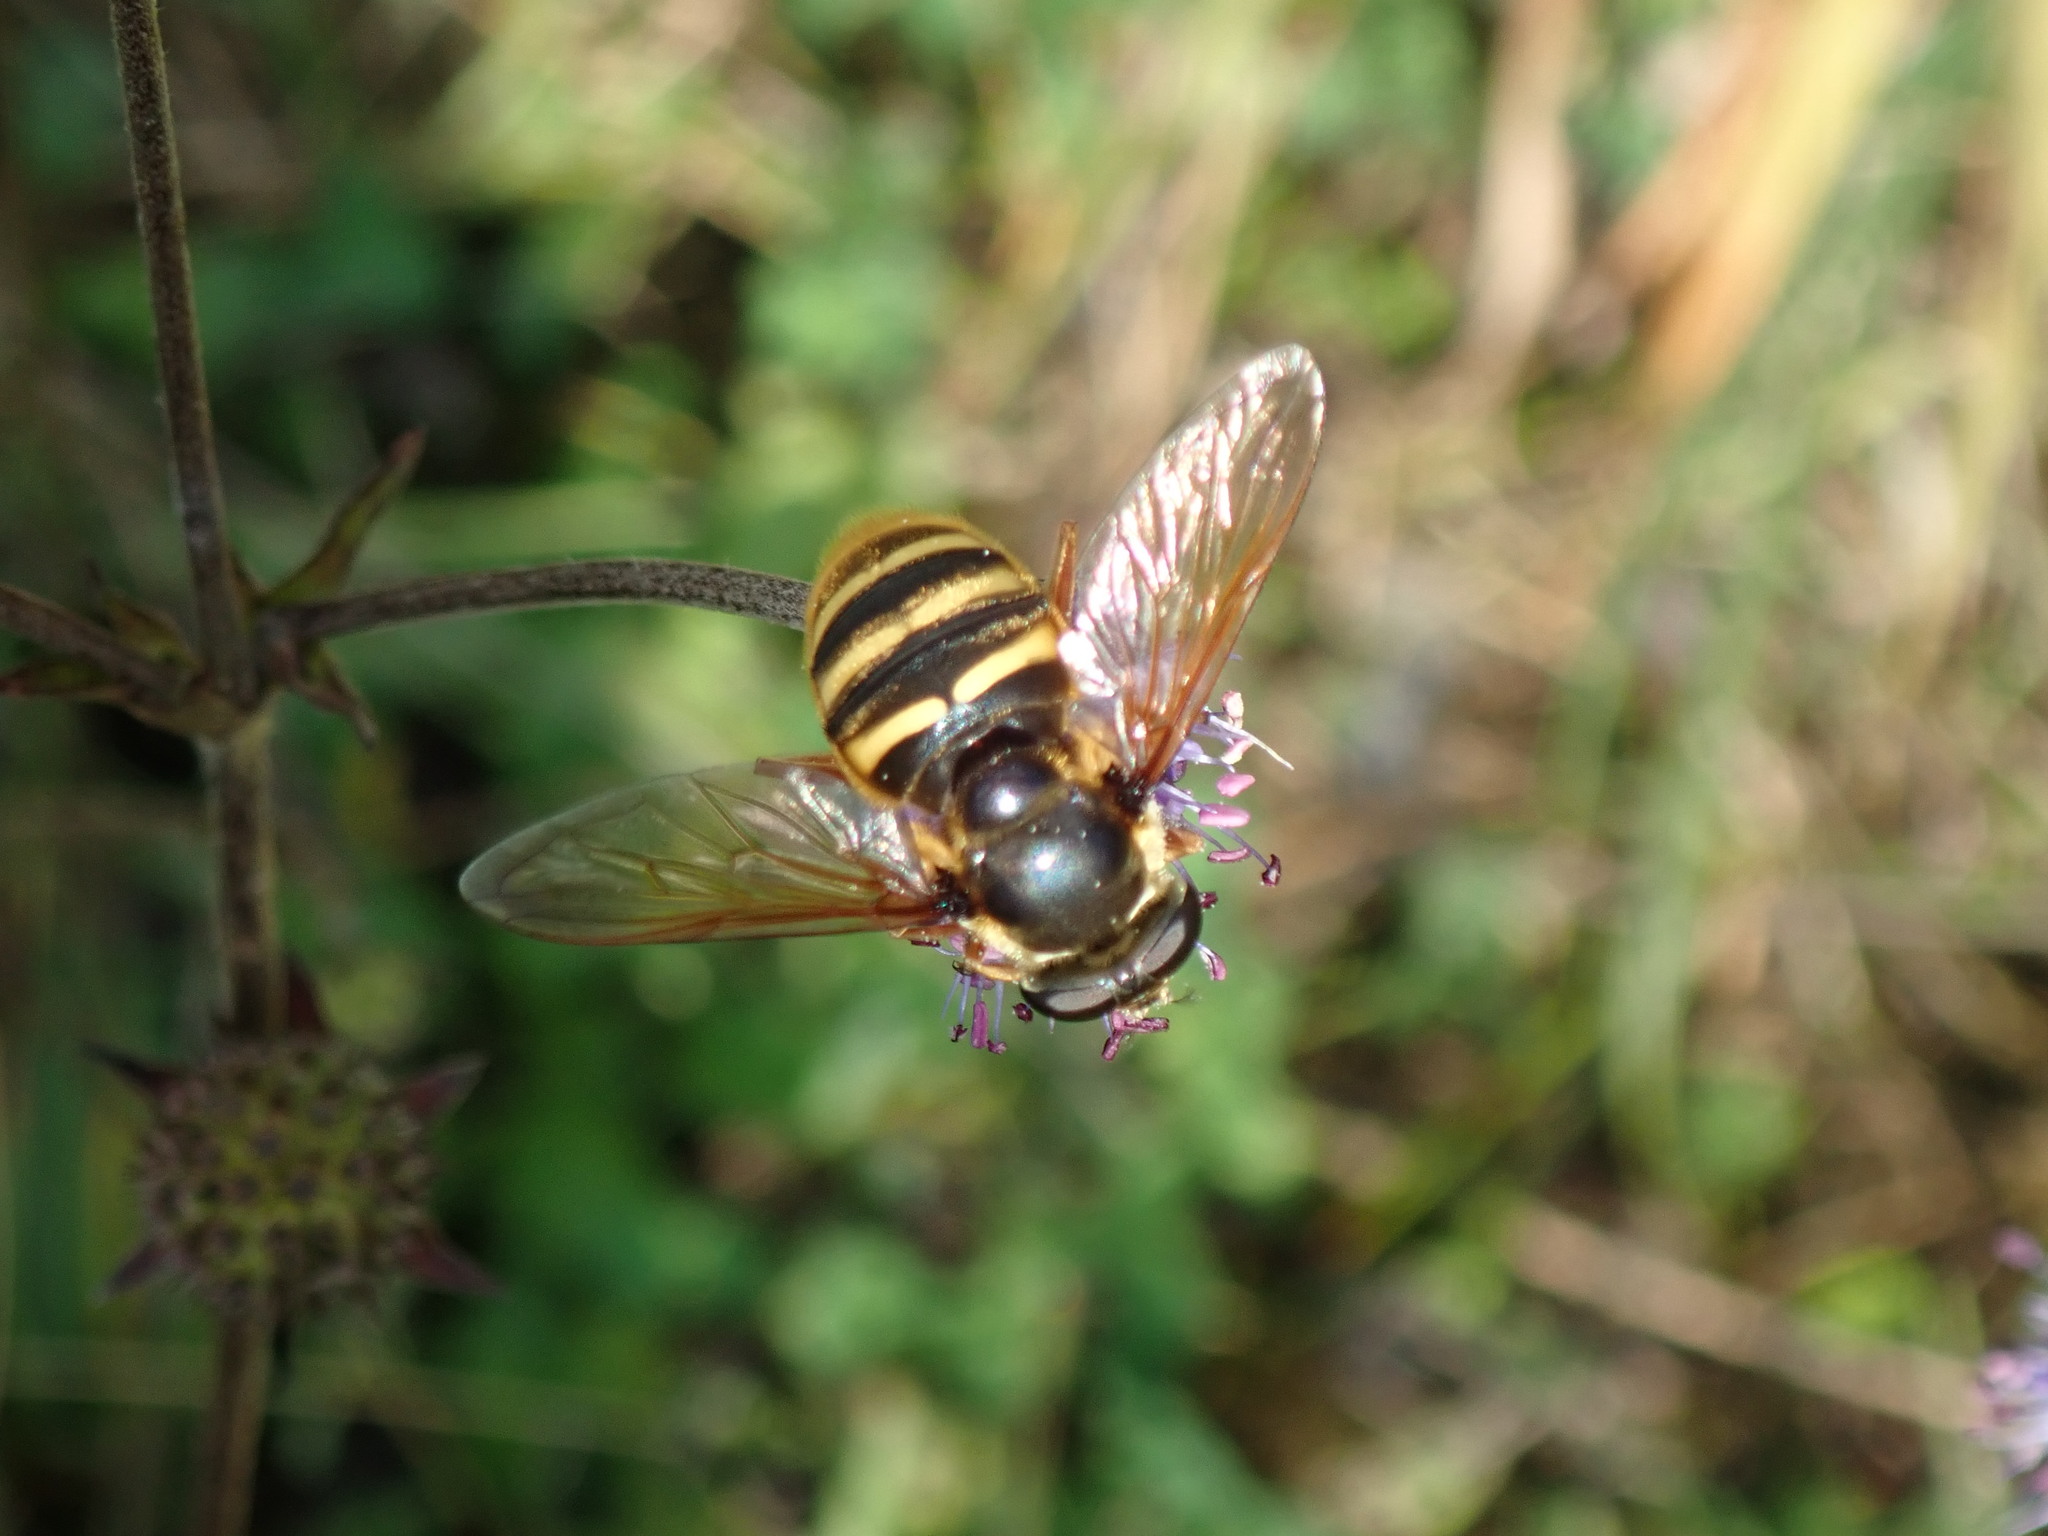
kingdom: Animalia
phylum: Arthropoda
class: Insecta
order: Diptera
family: Syrphidae
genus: Sericomyia
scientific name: Sericomyia silentis
